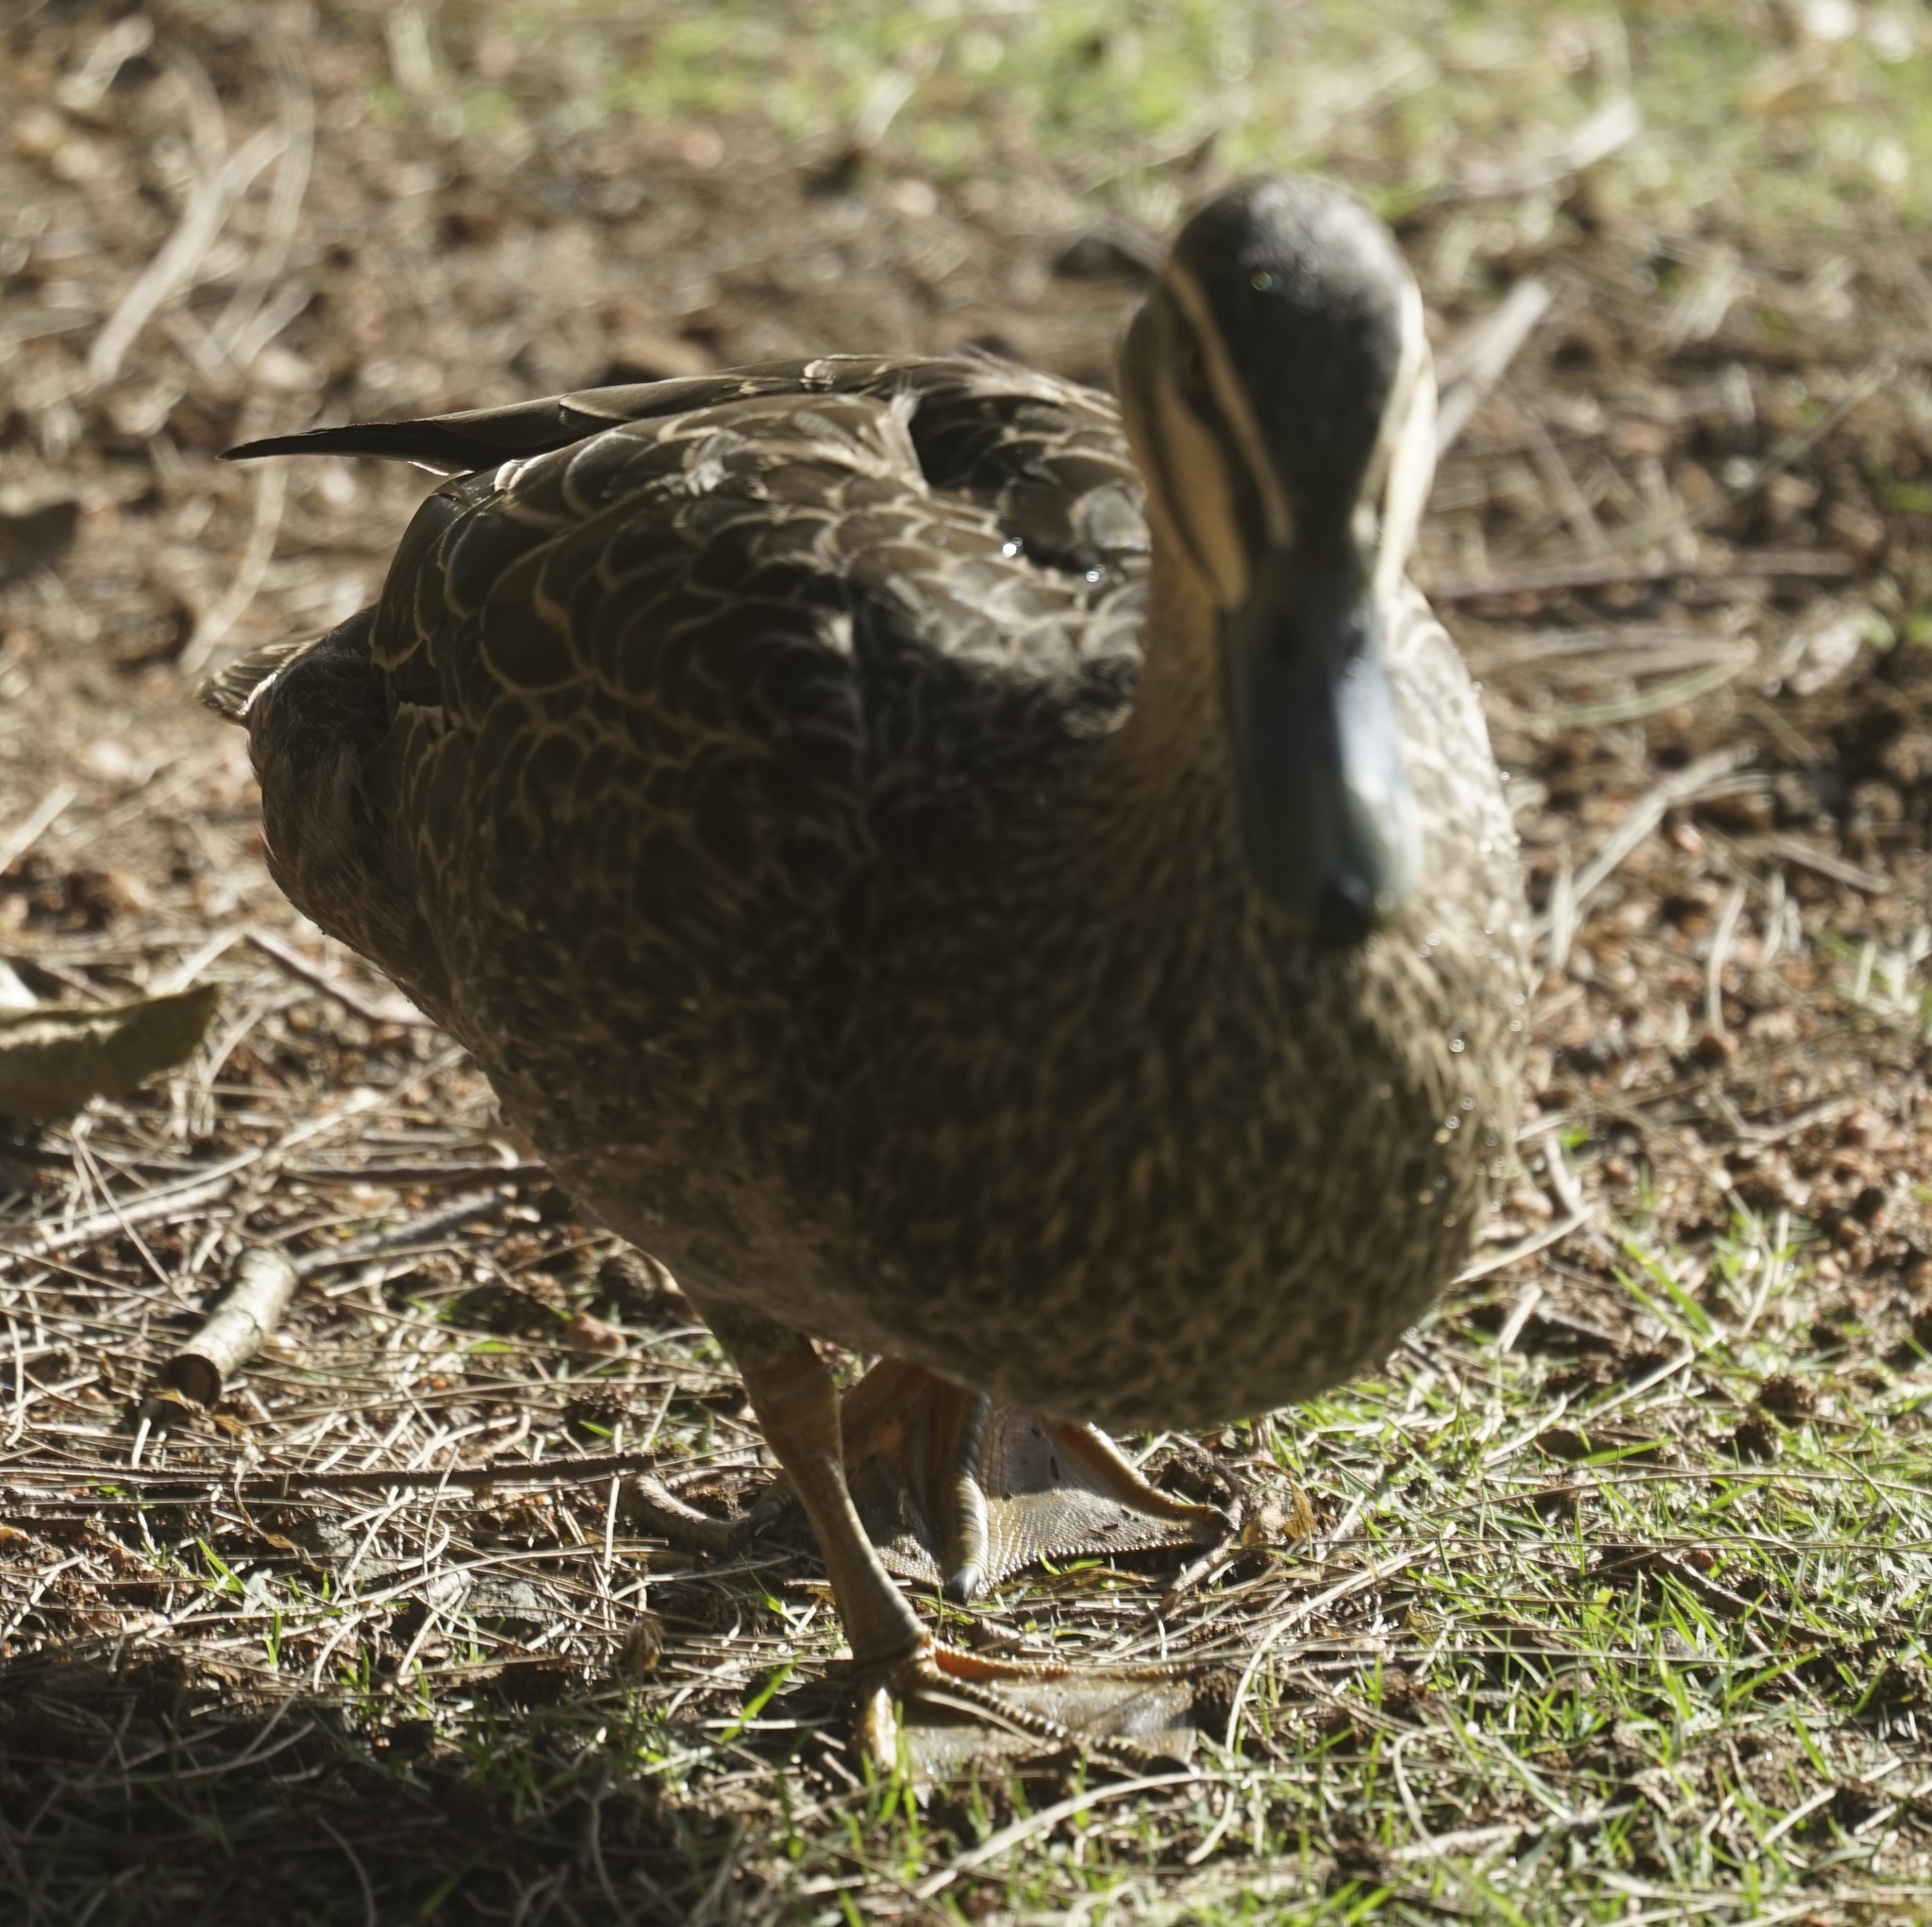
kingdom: Animalia
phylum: Chordata
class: Aves
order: Anseriformes
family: Anatidae
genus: Anas
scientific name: Anas superciliosa
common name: Pacific black duck
